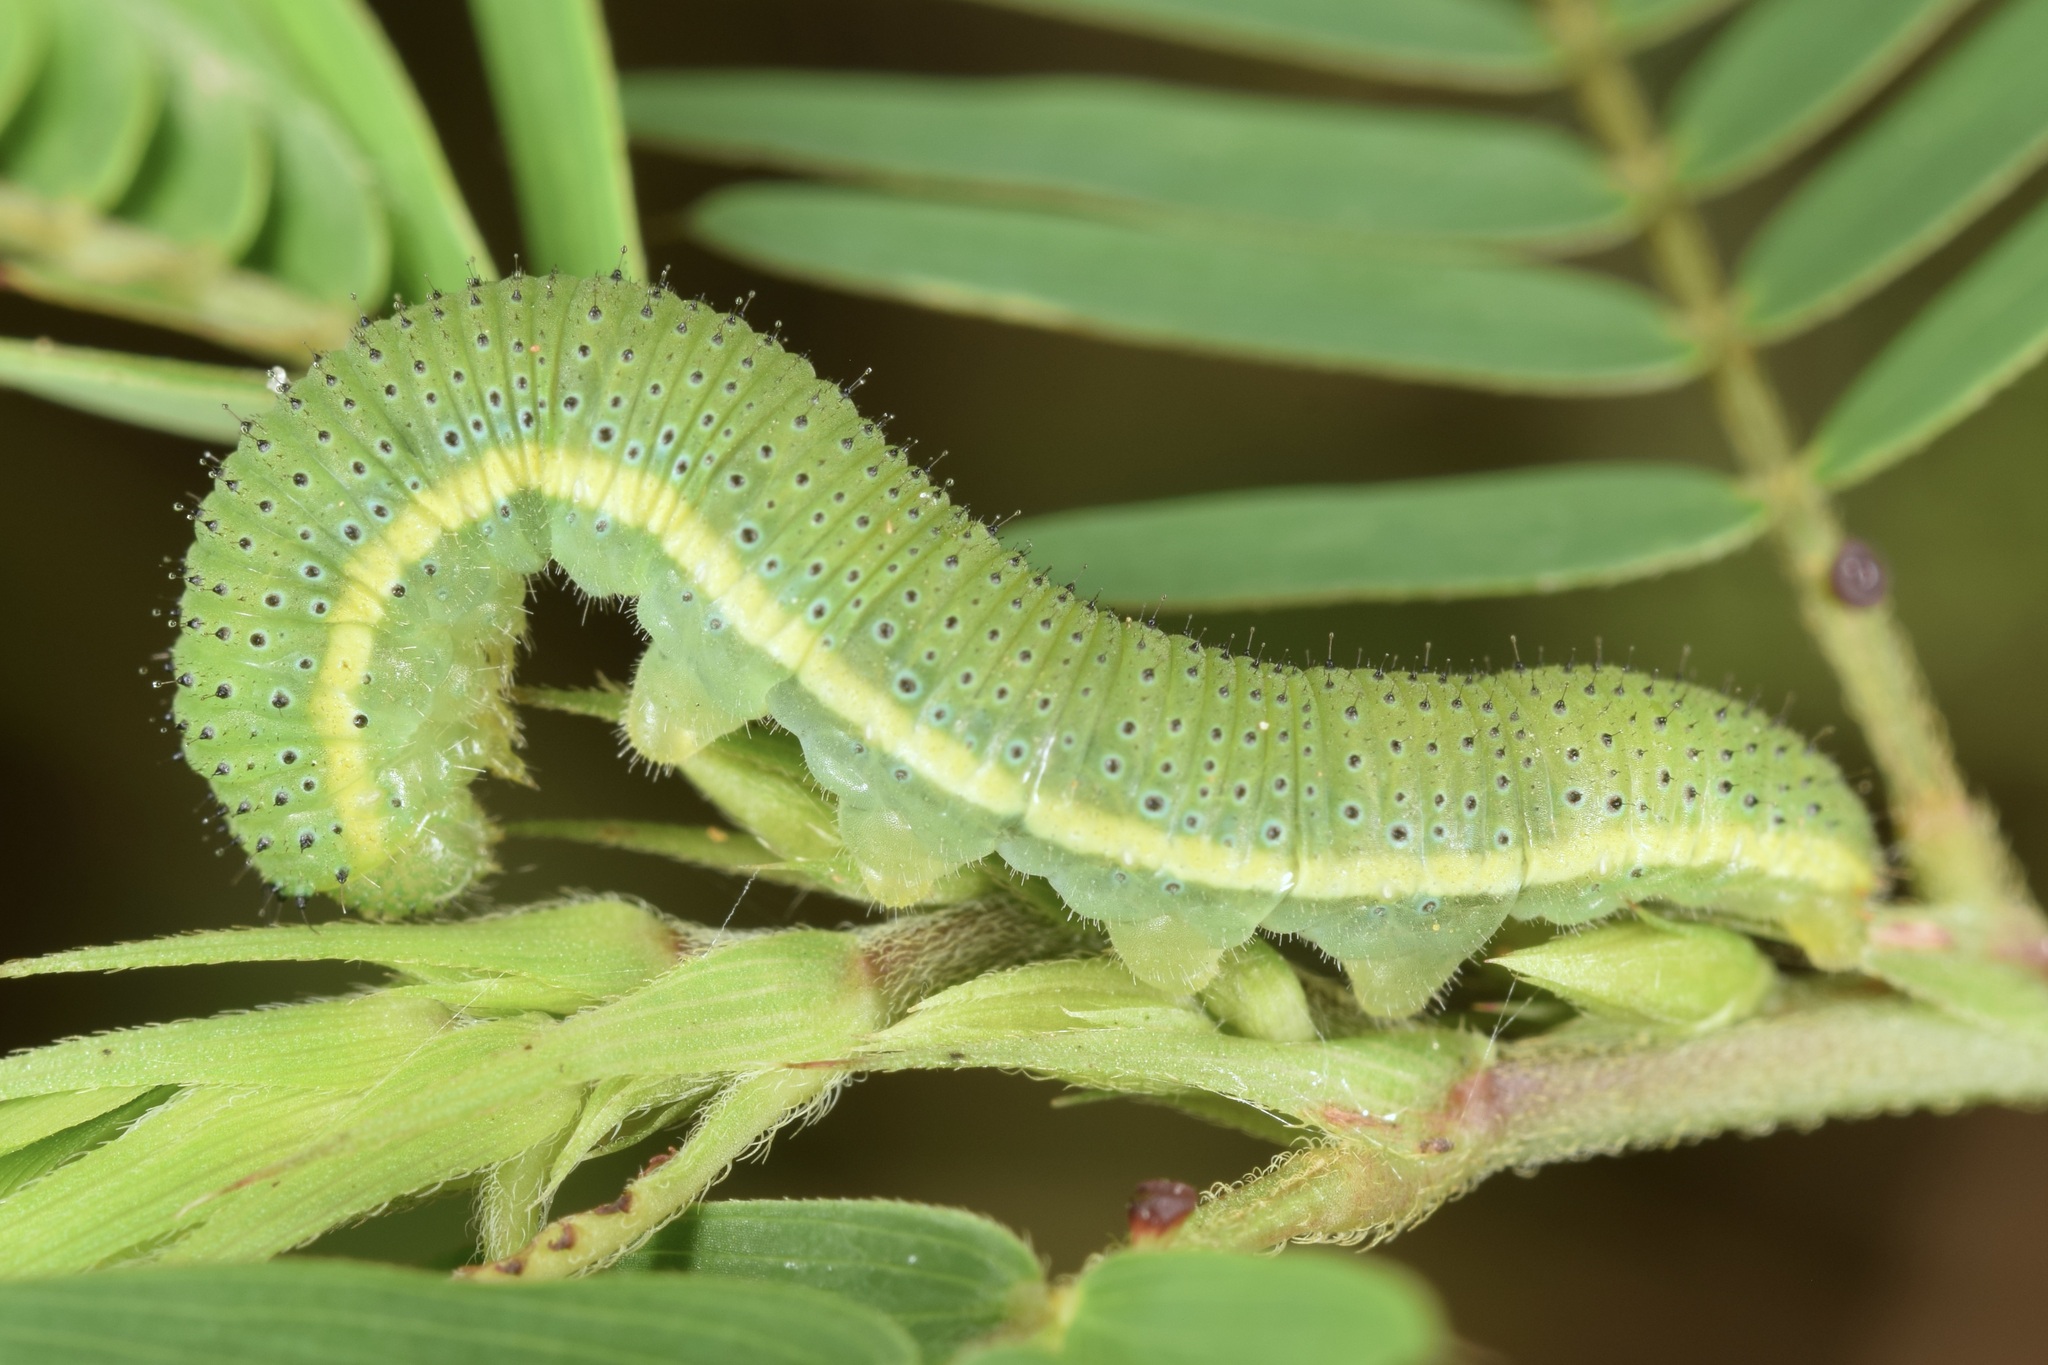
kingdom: Animalia
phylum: Arthropoda
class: Insecta
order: Lepidoptera
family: Pieridae
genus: Phoebis
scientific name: Phoebis sennae
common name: Cloudless sulphur
